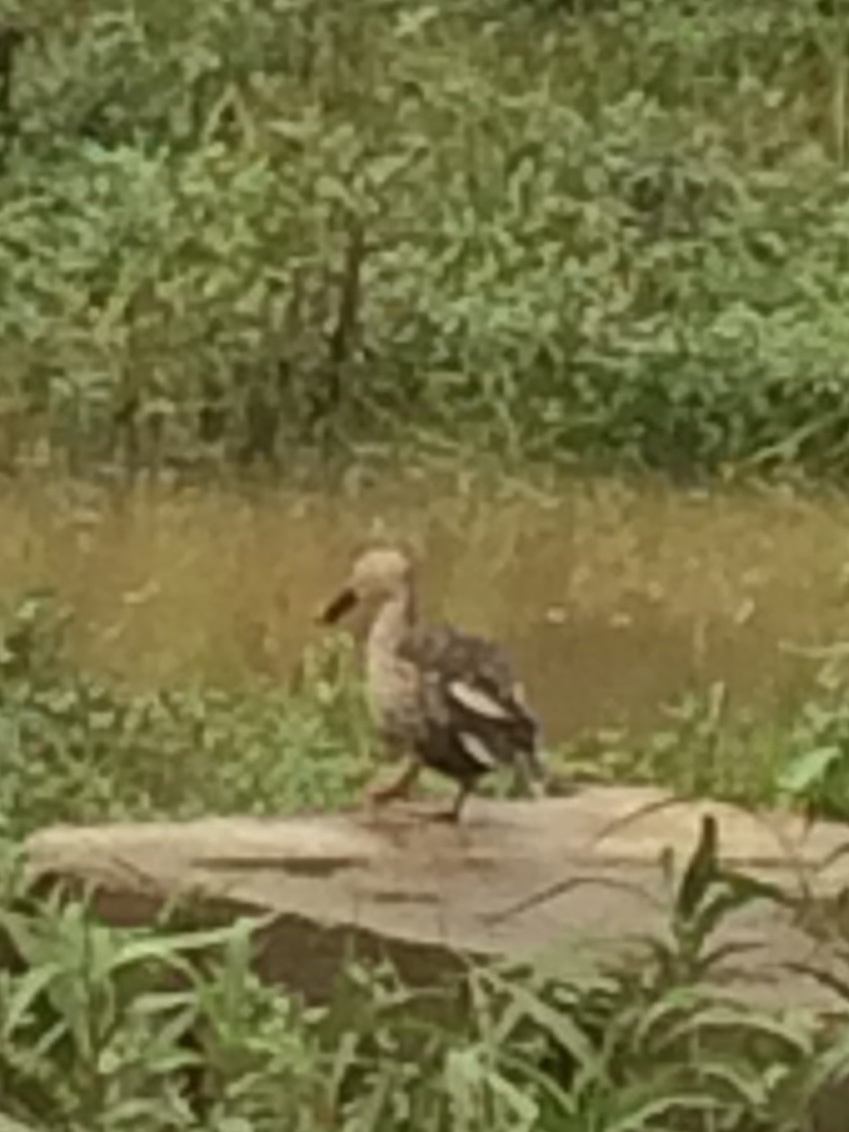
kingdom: Animalia
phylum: Chordata
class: Aves
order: Anseriformes
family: Anatidae
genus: Anas
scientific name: Anas poecilorhyncha
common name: Indian spot-billed duck
